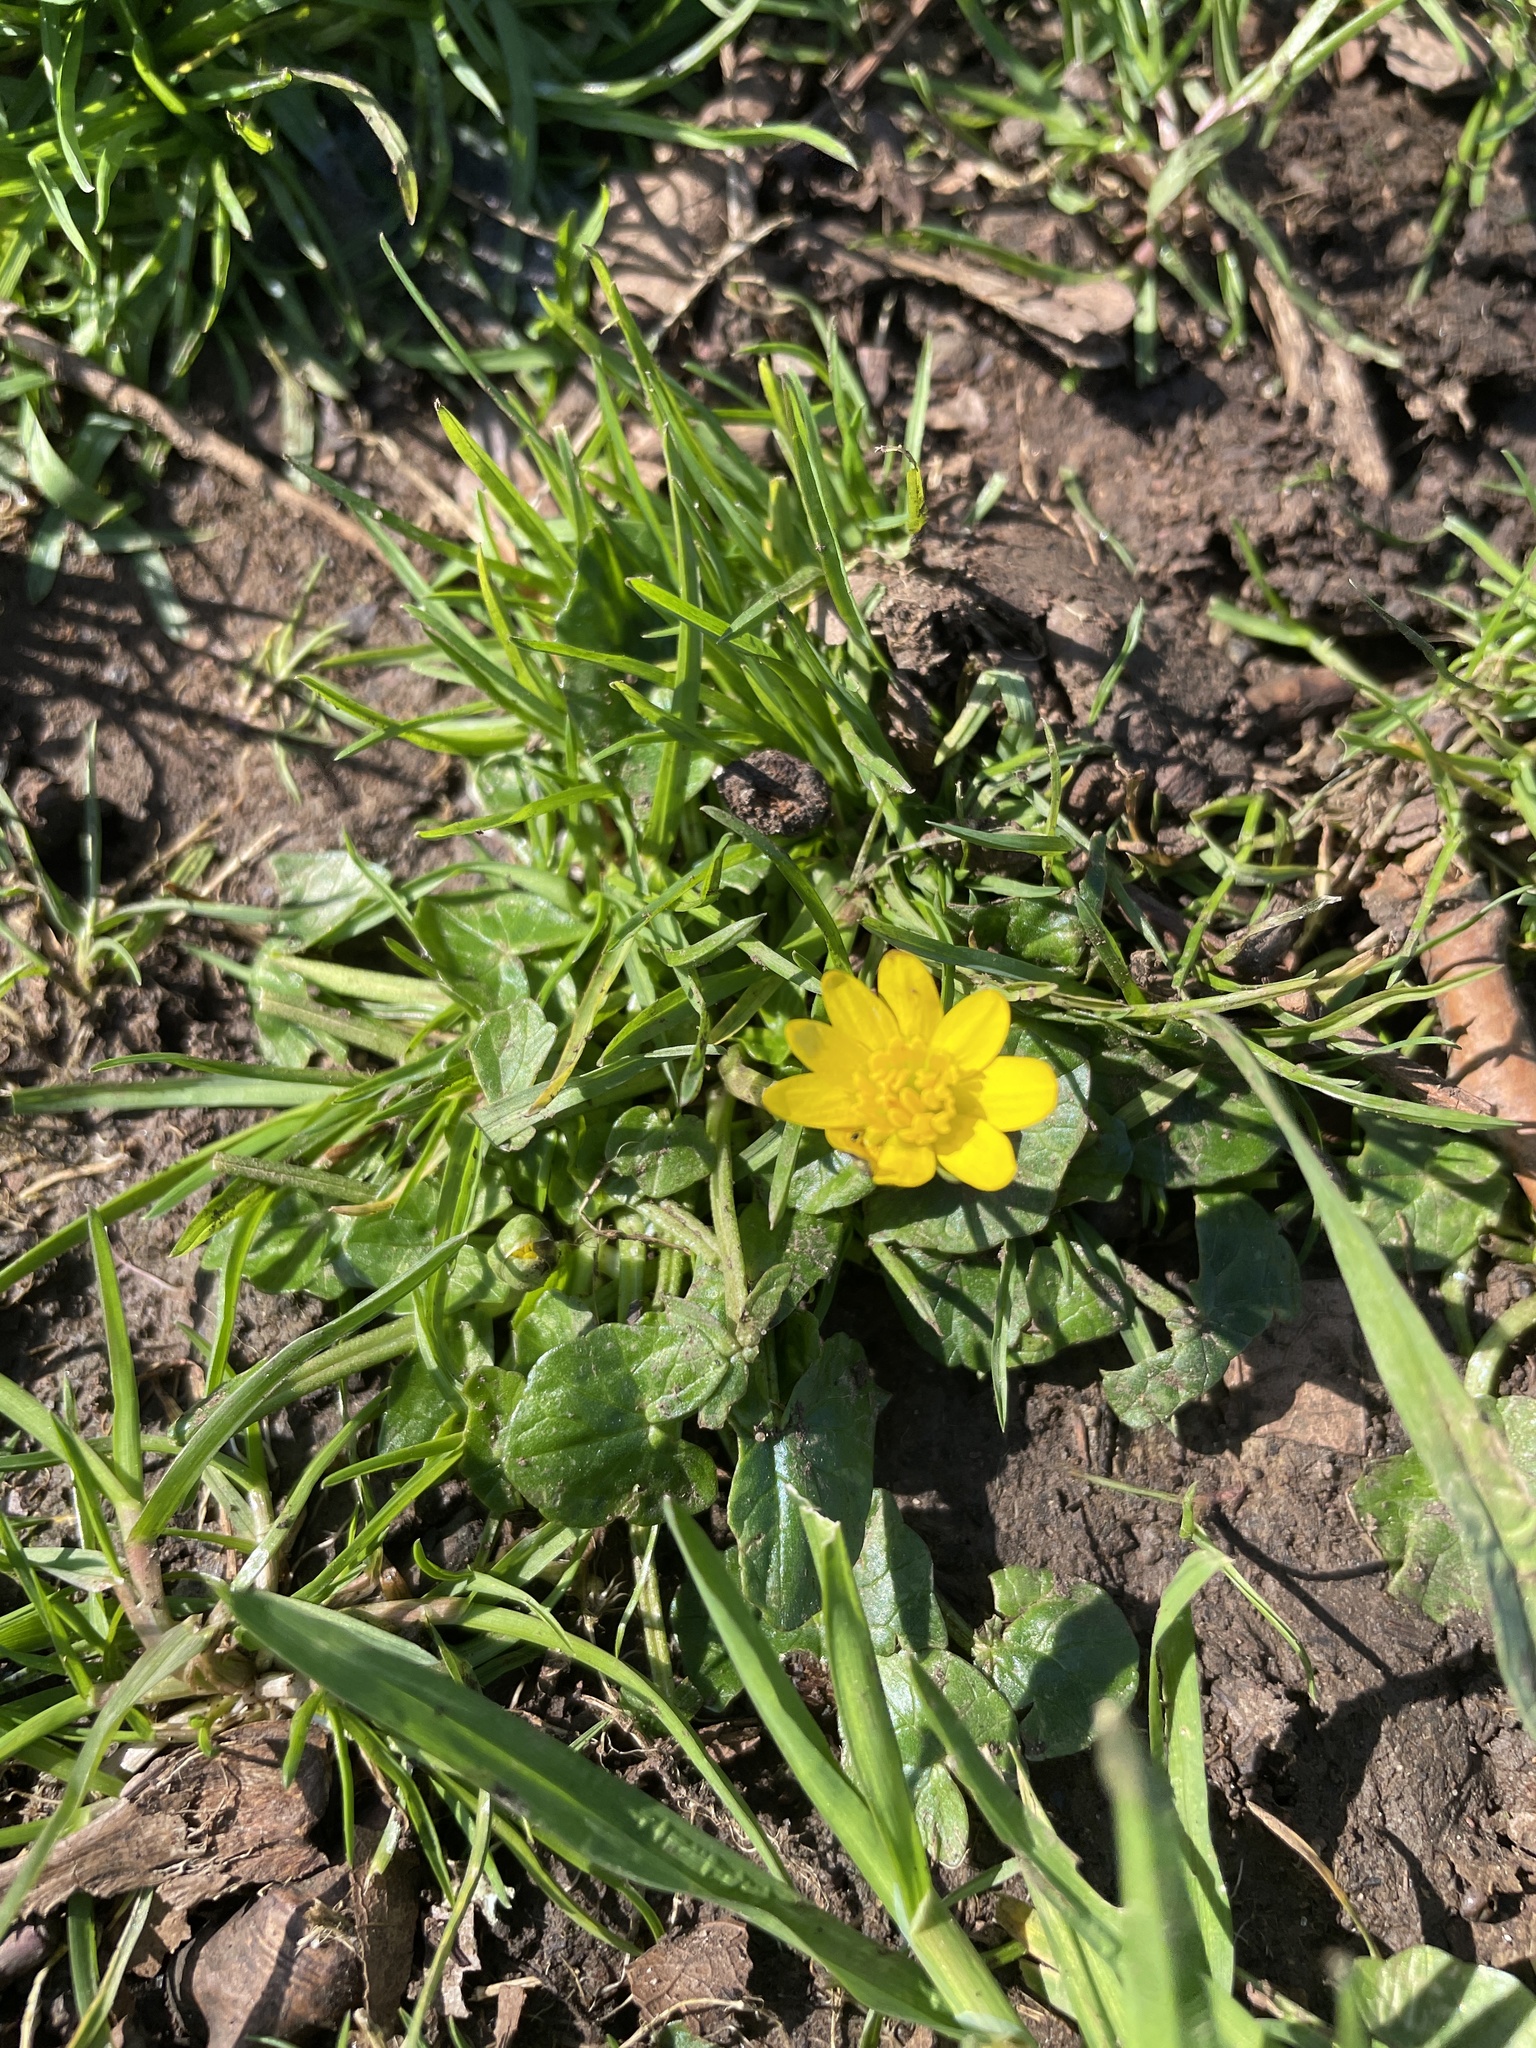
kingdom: Plantae
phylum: Tracheophyta
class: Magnoliopsida
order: Ranunculales
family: Ranunculaceae
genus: Ficaria
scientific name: Ficaria verna
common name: Lesser celandine
